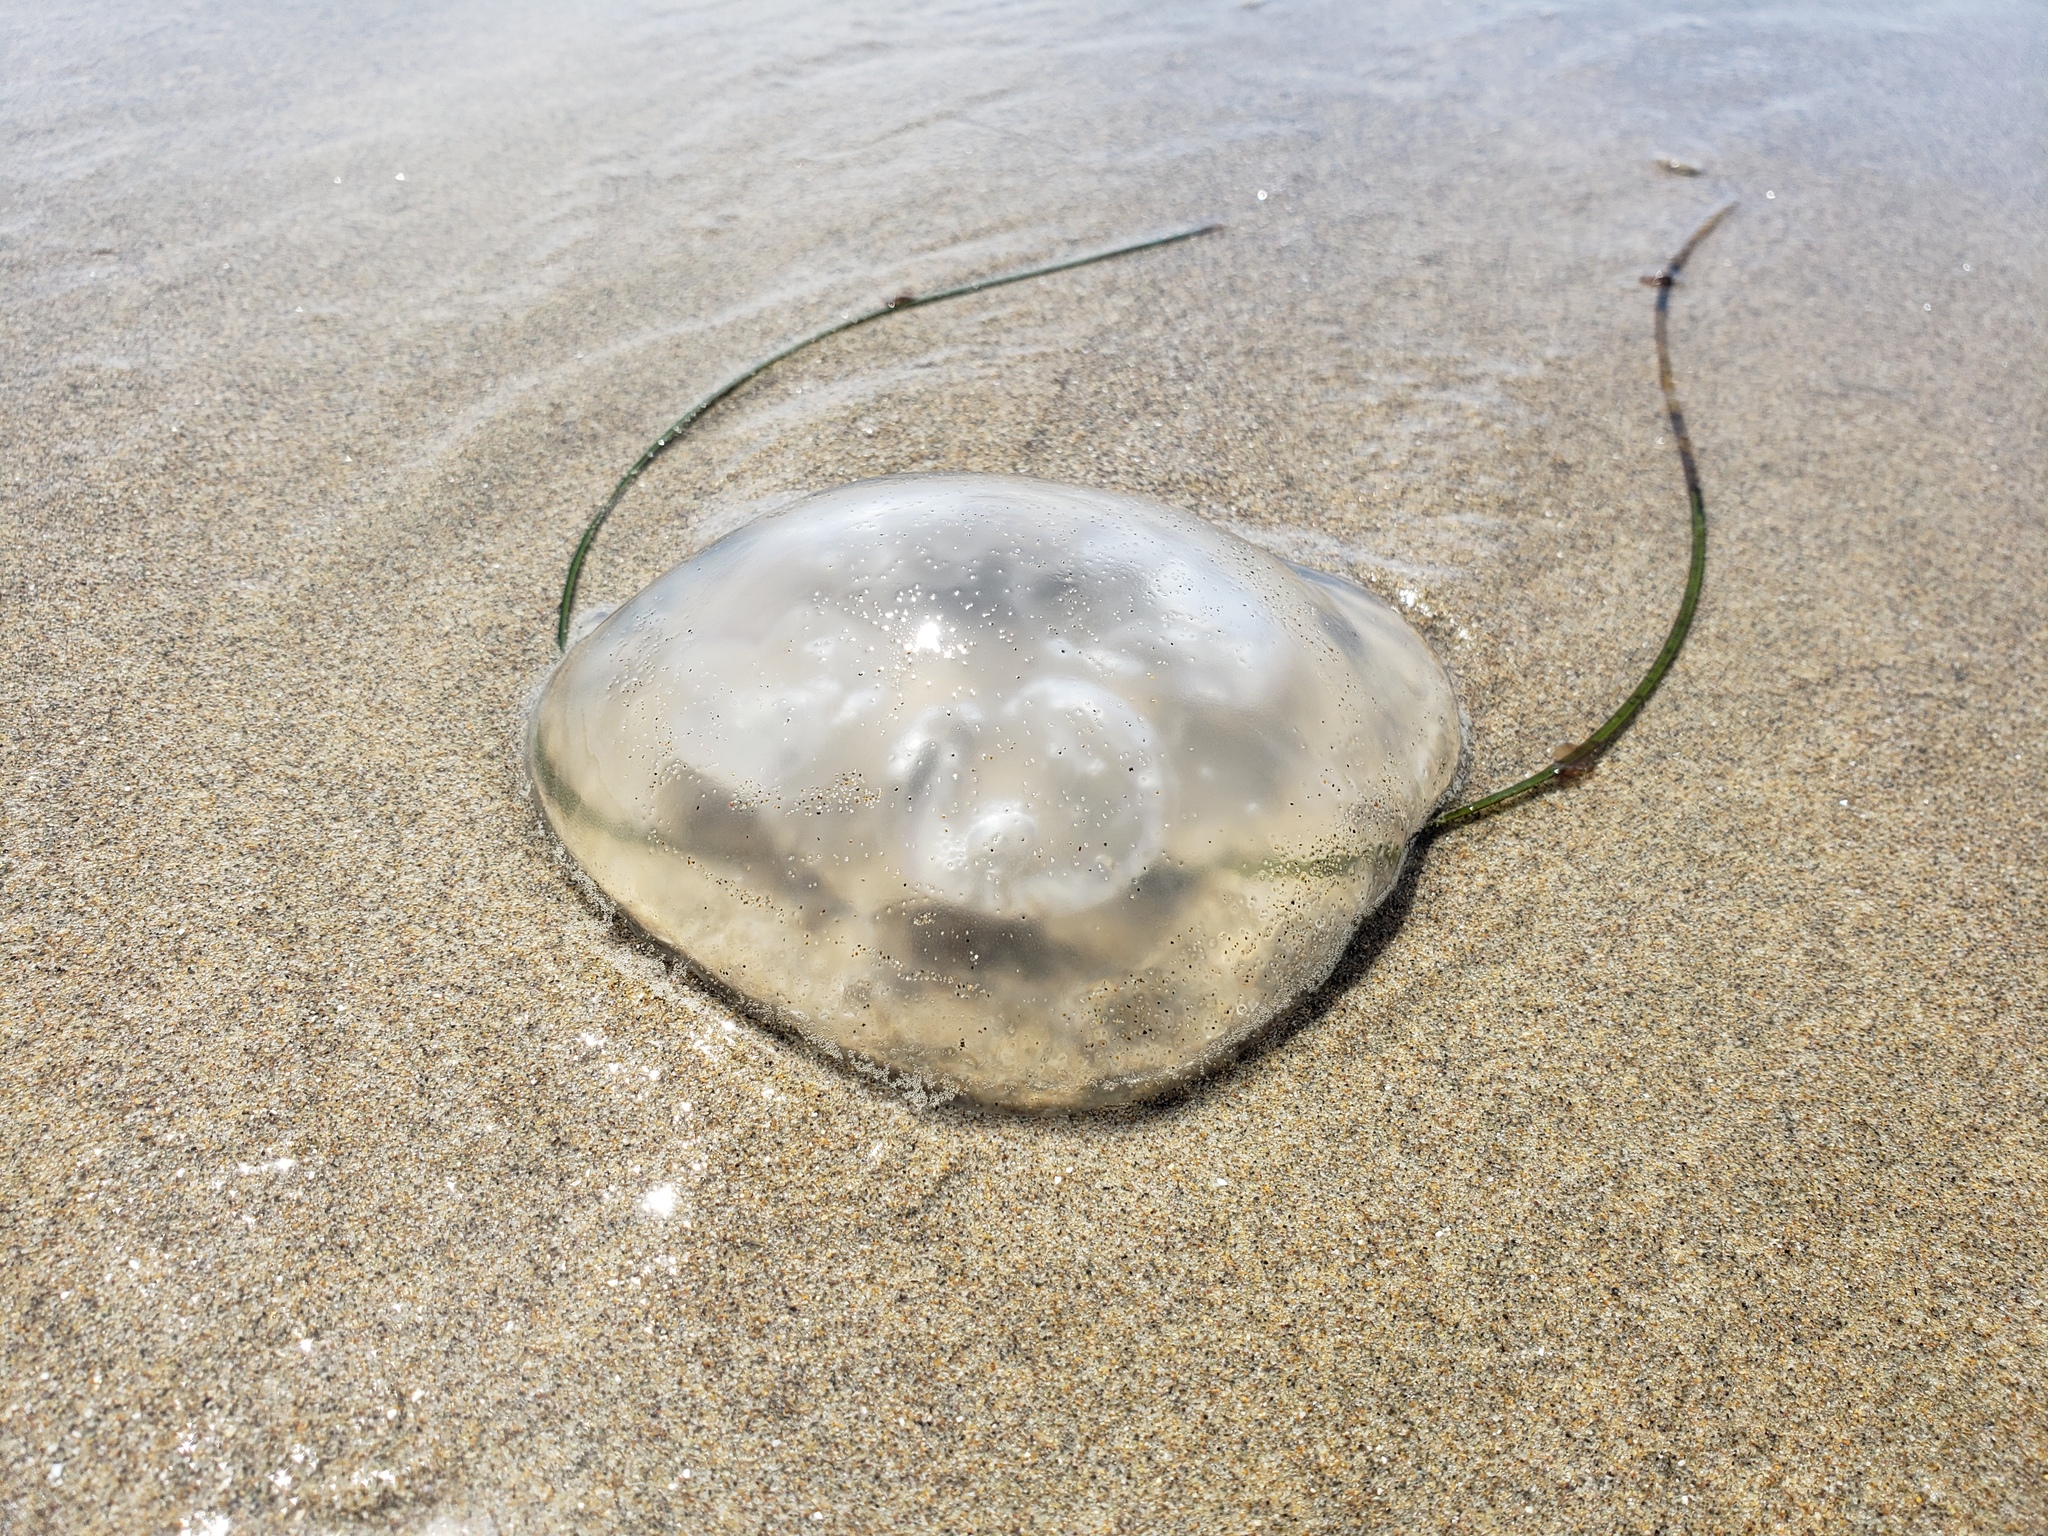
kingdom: Animalia
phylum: Cnidaria
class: Scyphozoa
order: Semaeostomeae
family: Ulmaridae
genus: Aurelia
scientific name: Aurelia labiata
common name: Pacific moon jelly
